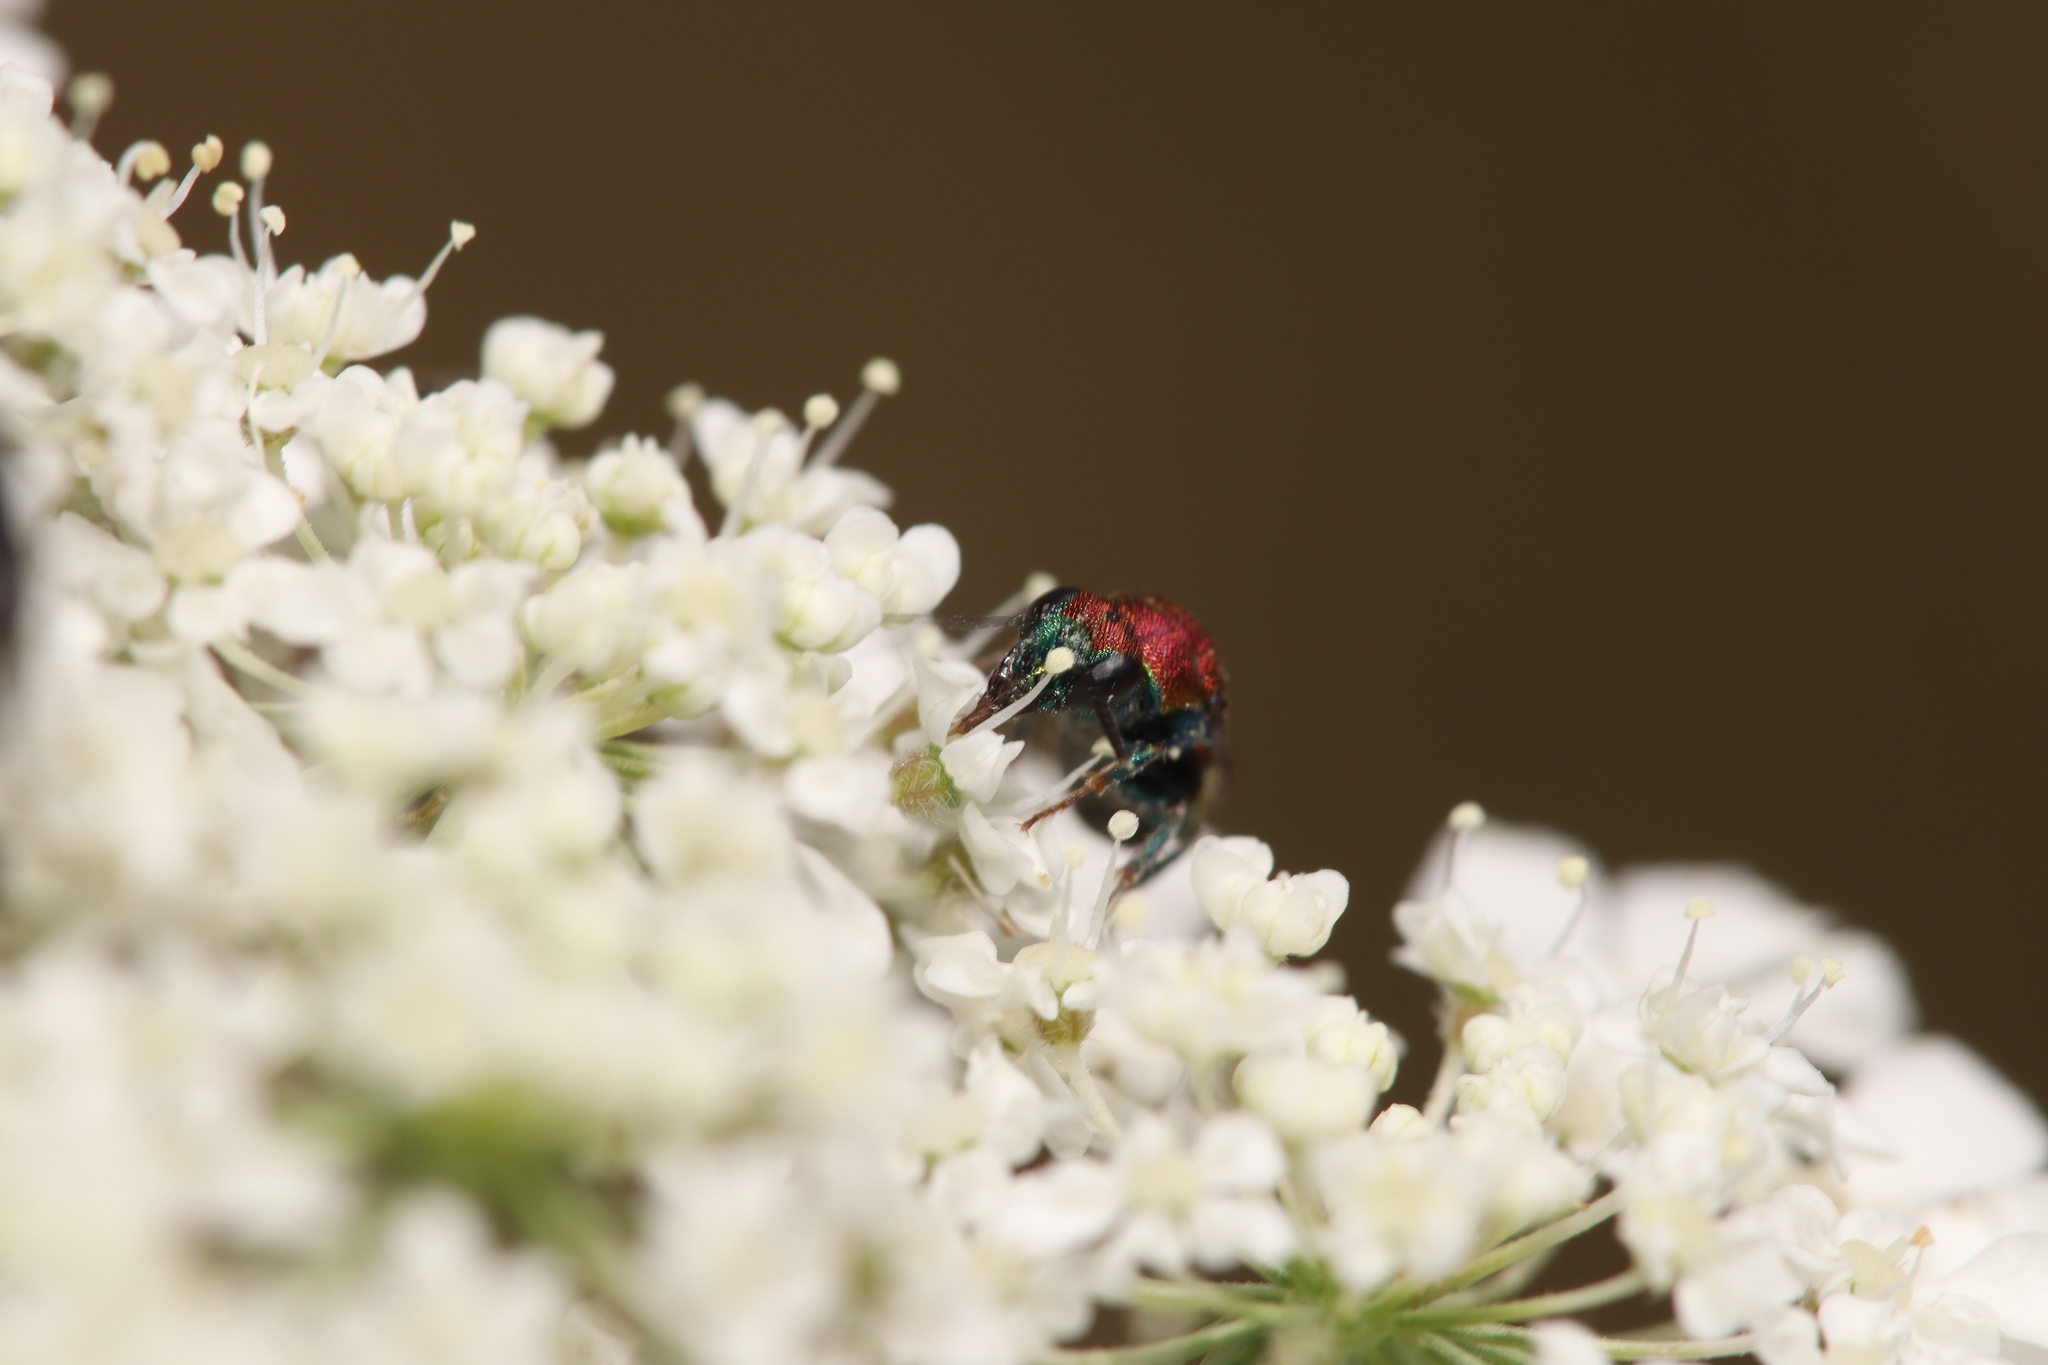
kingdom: Animalia
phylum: Arthropoda
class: Insecta
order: Hymenoptera
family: Chrysididae
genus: Hedychrum
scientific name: Hedychrum chalybaeum
